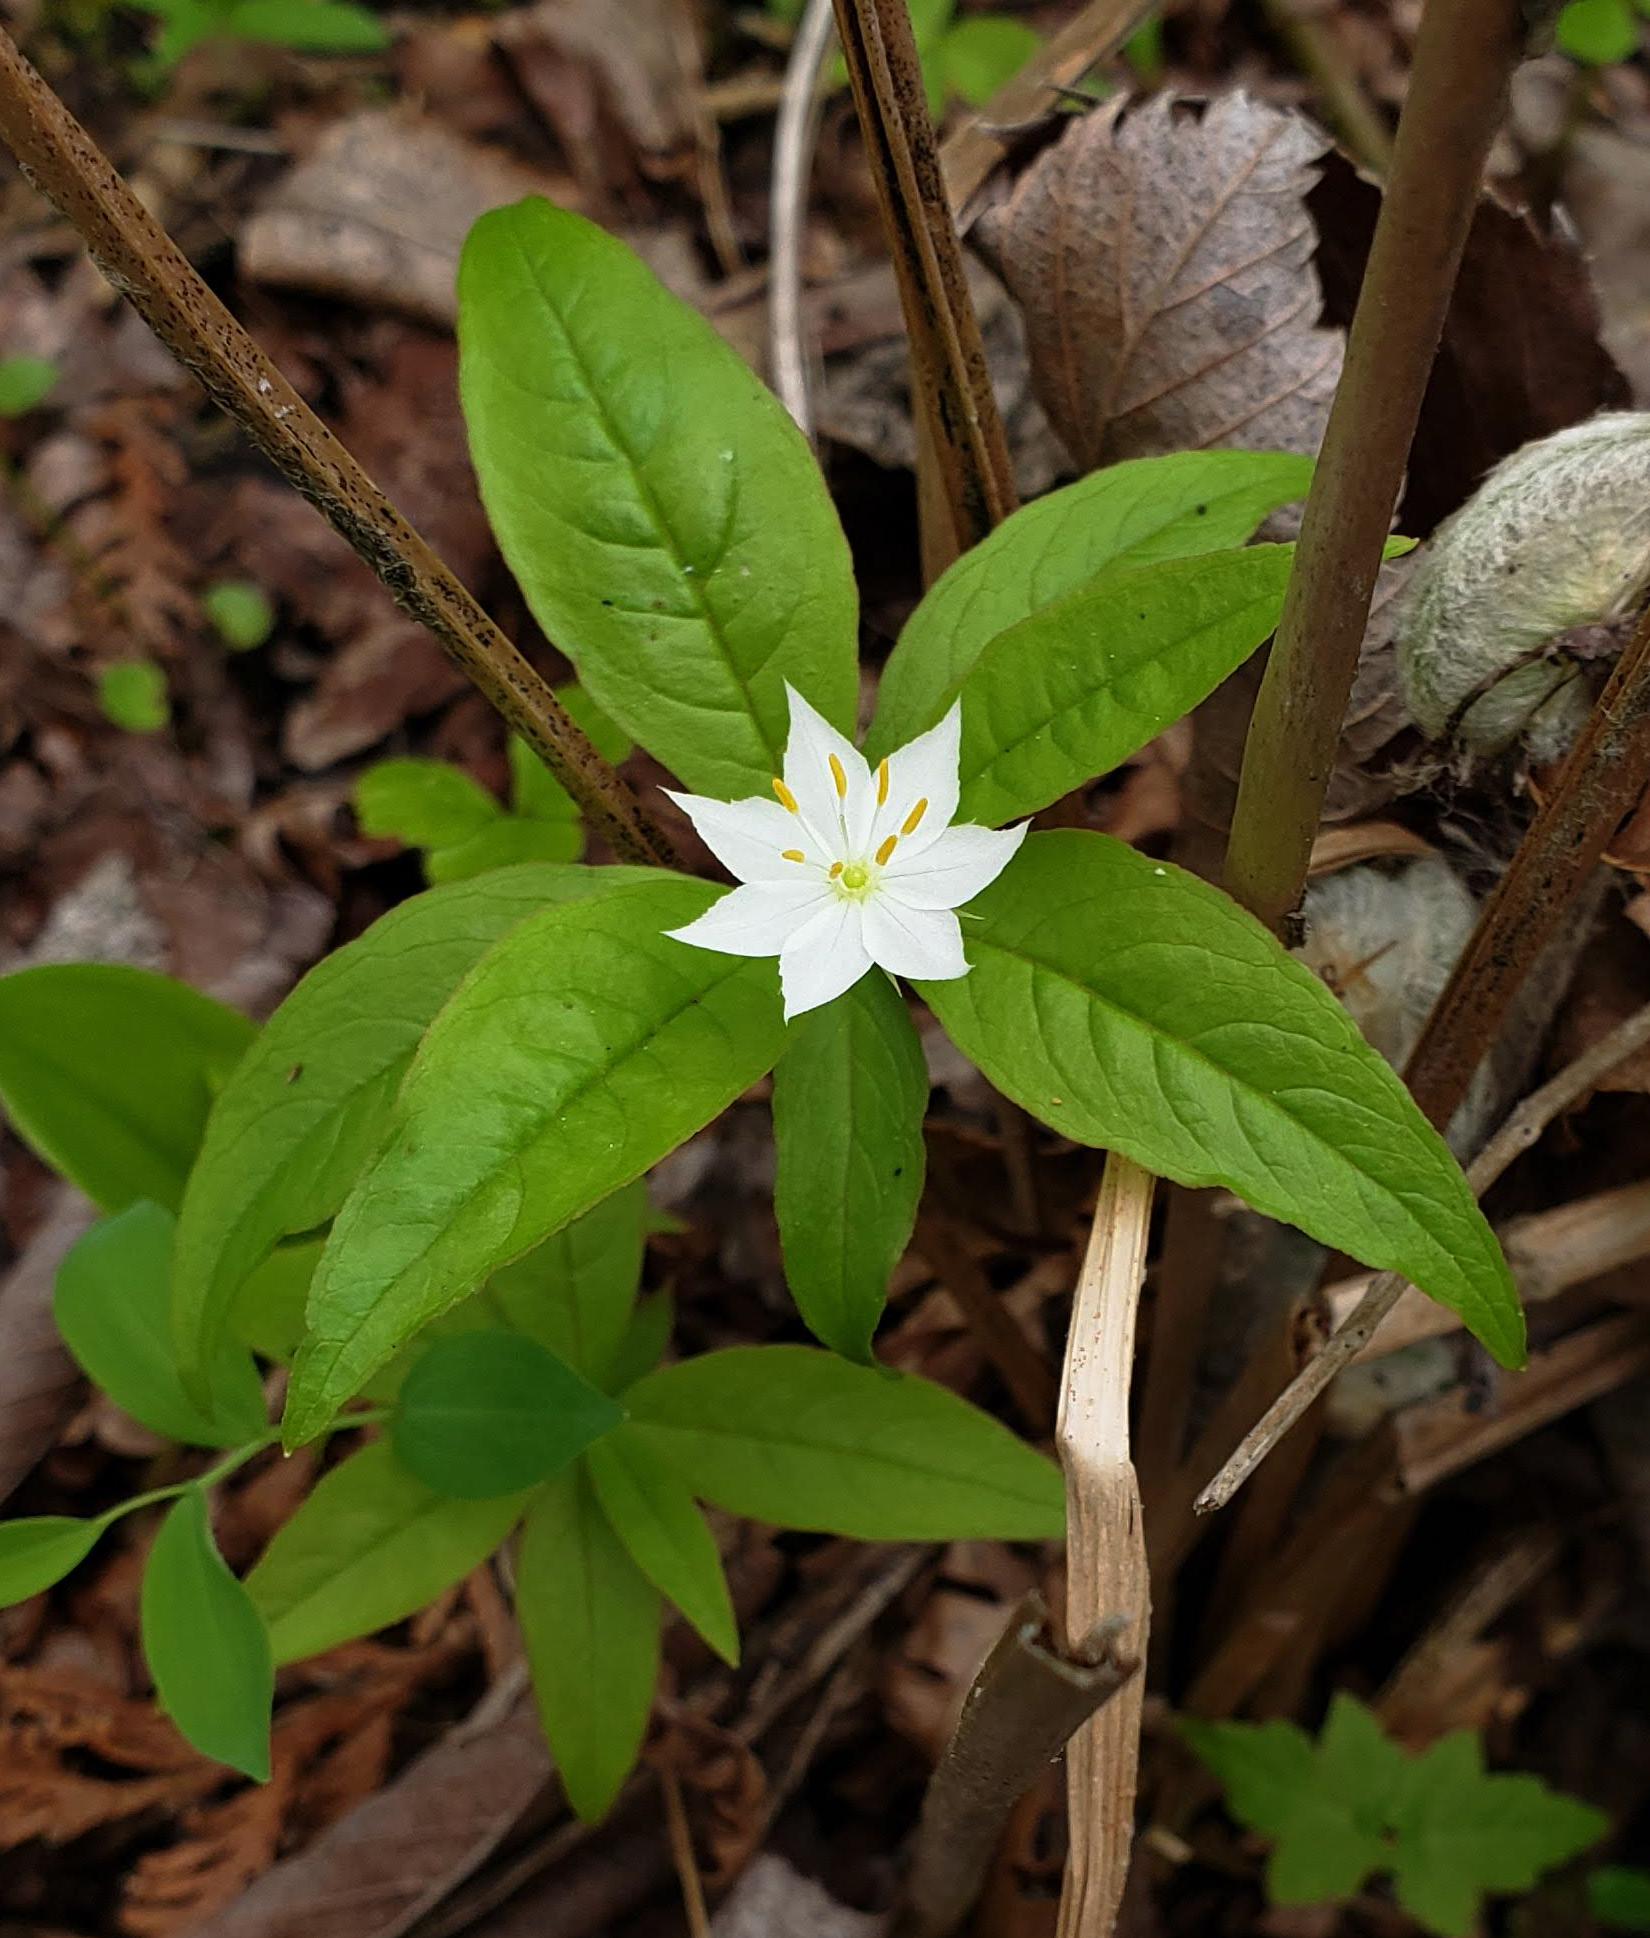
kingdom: Plantae
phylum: Tracheophyta
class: Magnoliopsida
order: Ericales
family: Primulaceae
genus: Lysimachia
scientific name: Lysimachia borealis
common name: American starflower
